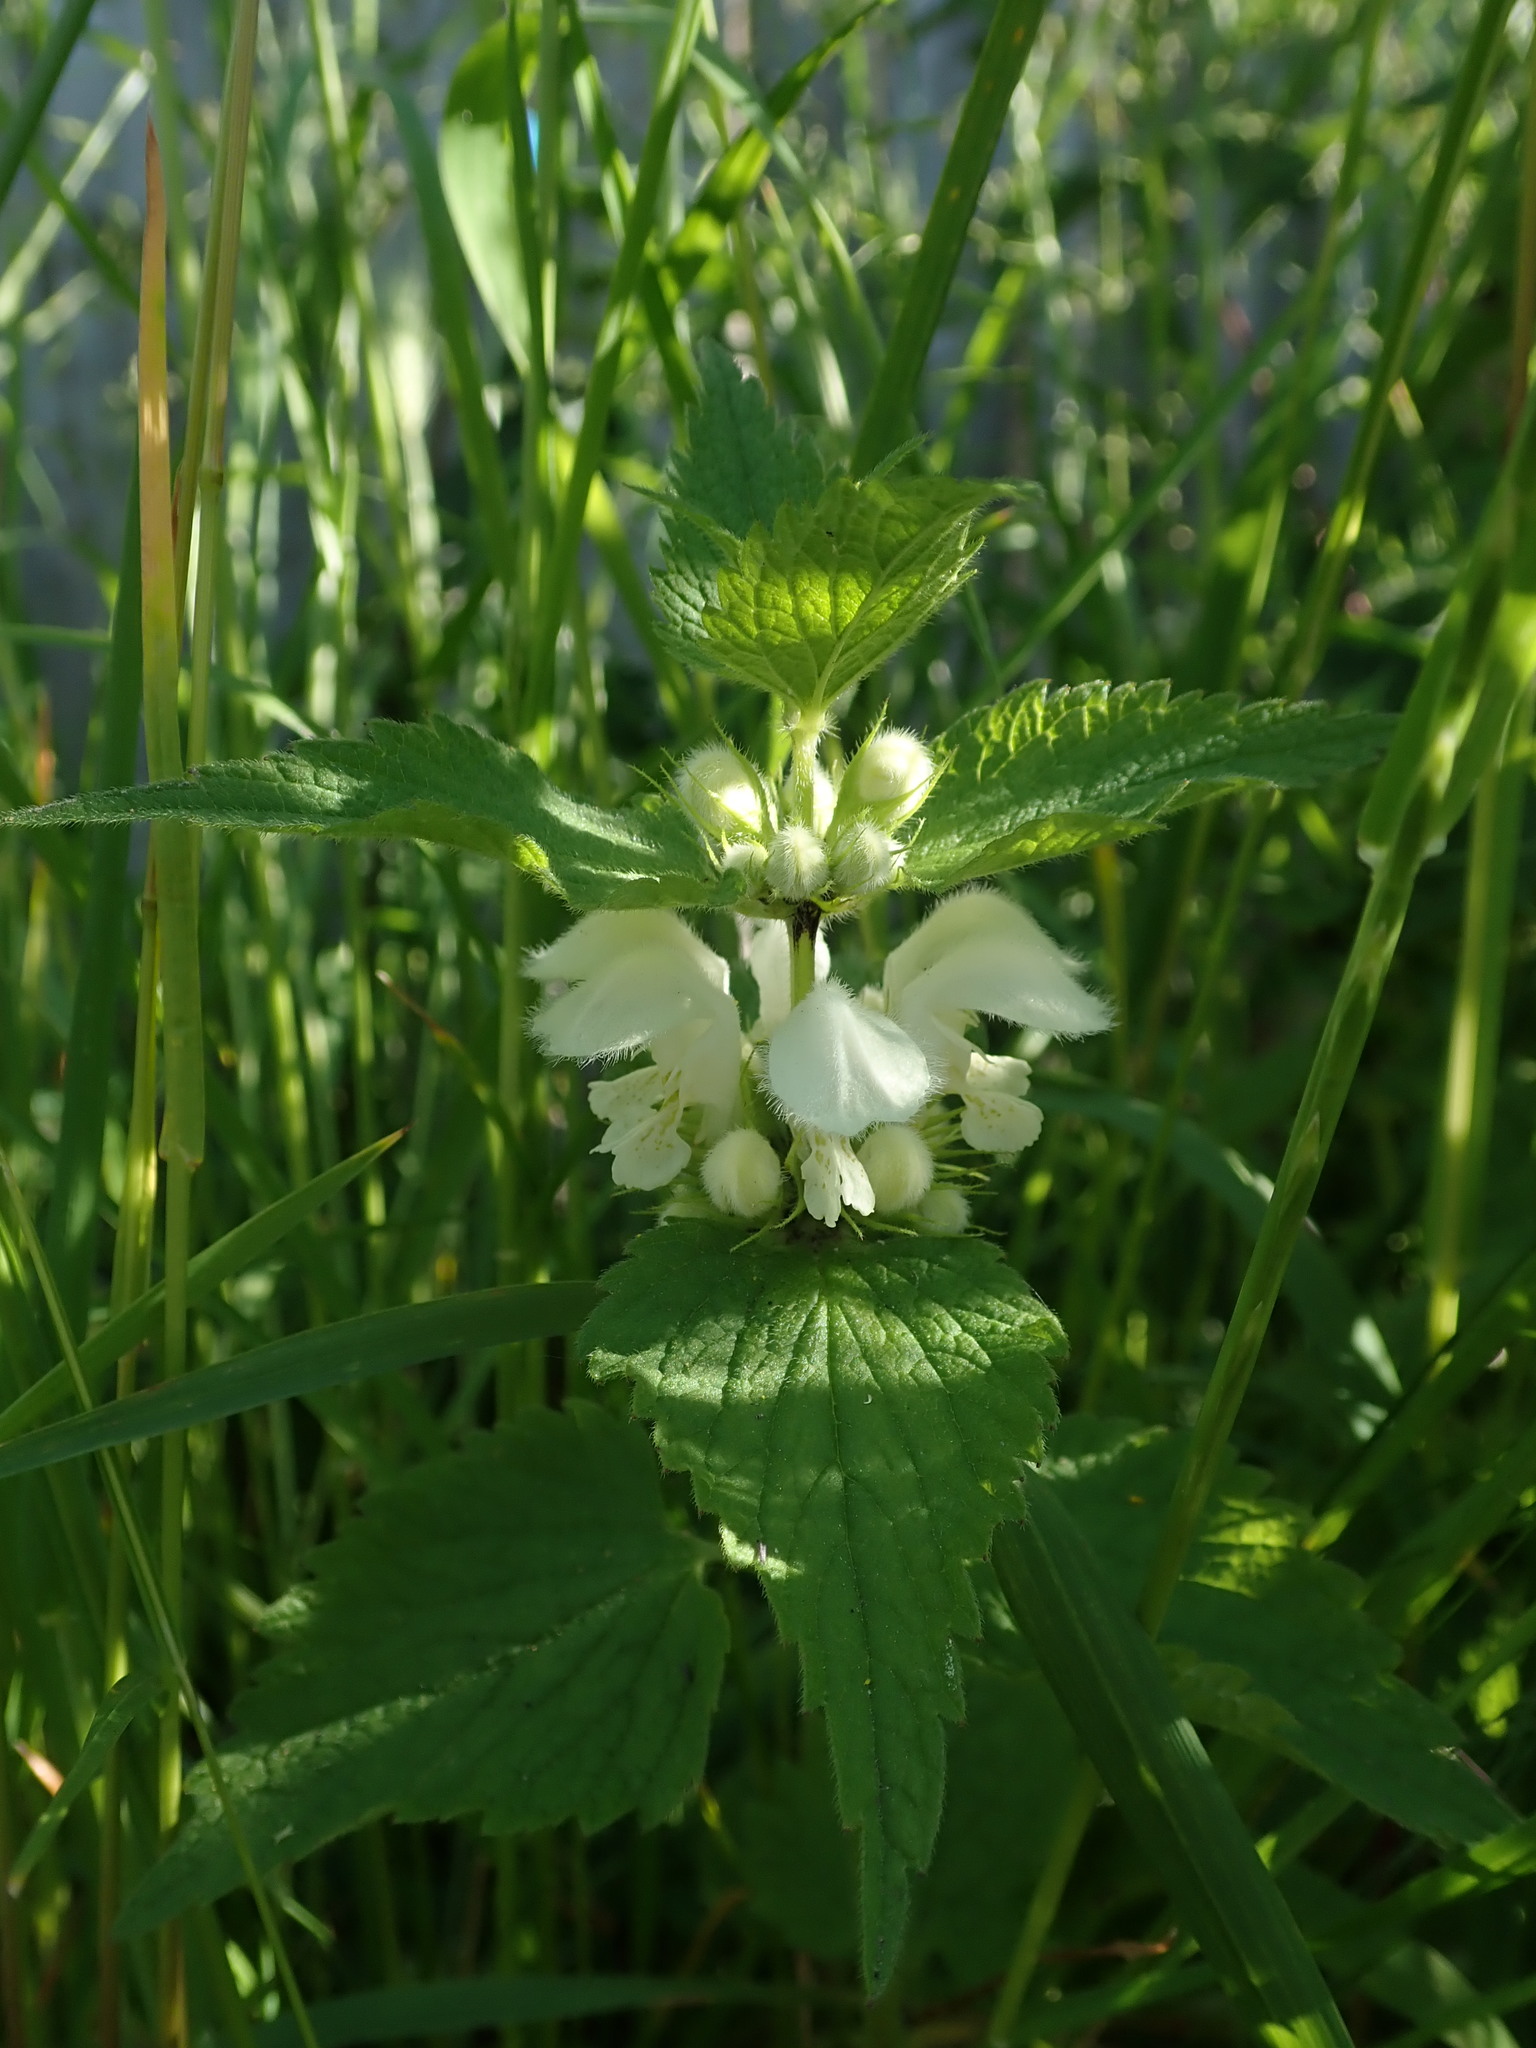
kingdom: Plantae
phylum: Tracheophyta
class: Magnoliopsida
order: Lamiales
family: Lamiaceae
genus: Lamium
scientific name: Lamium album
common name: White dead-nettle
